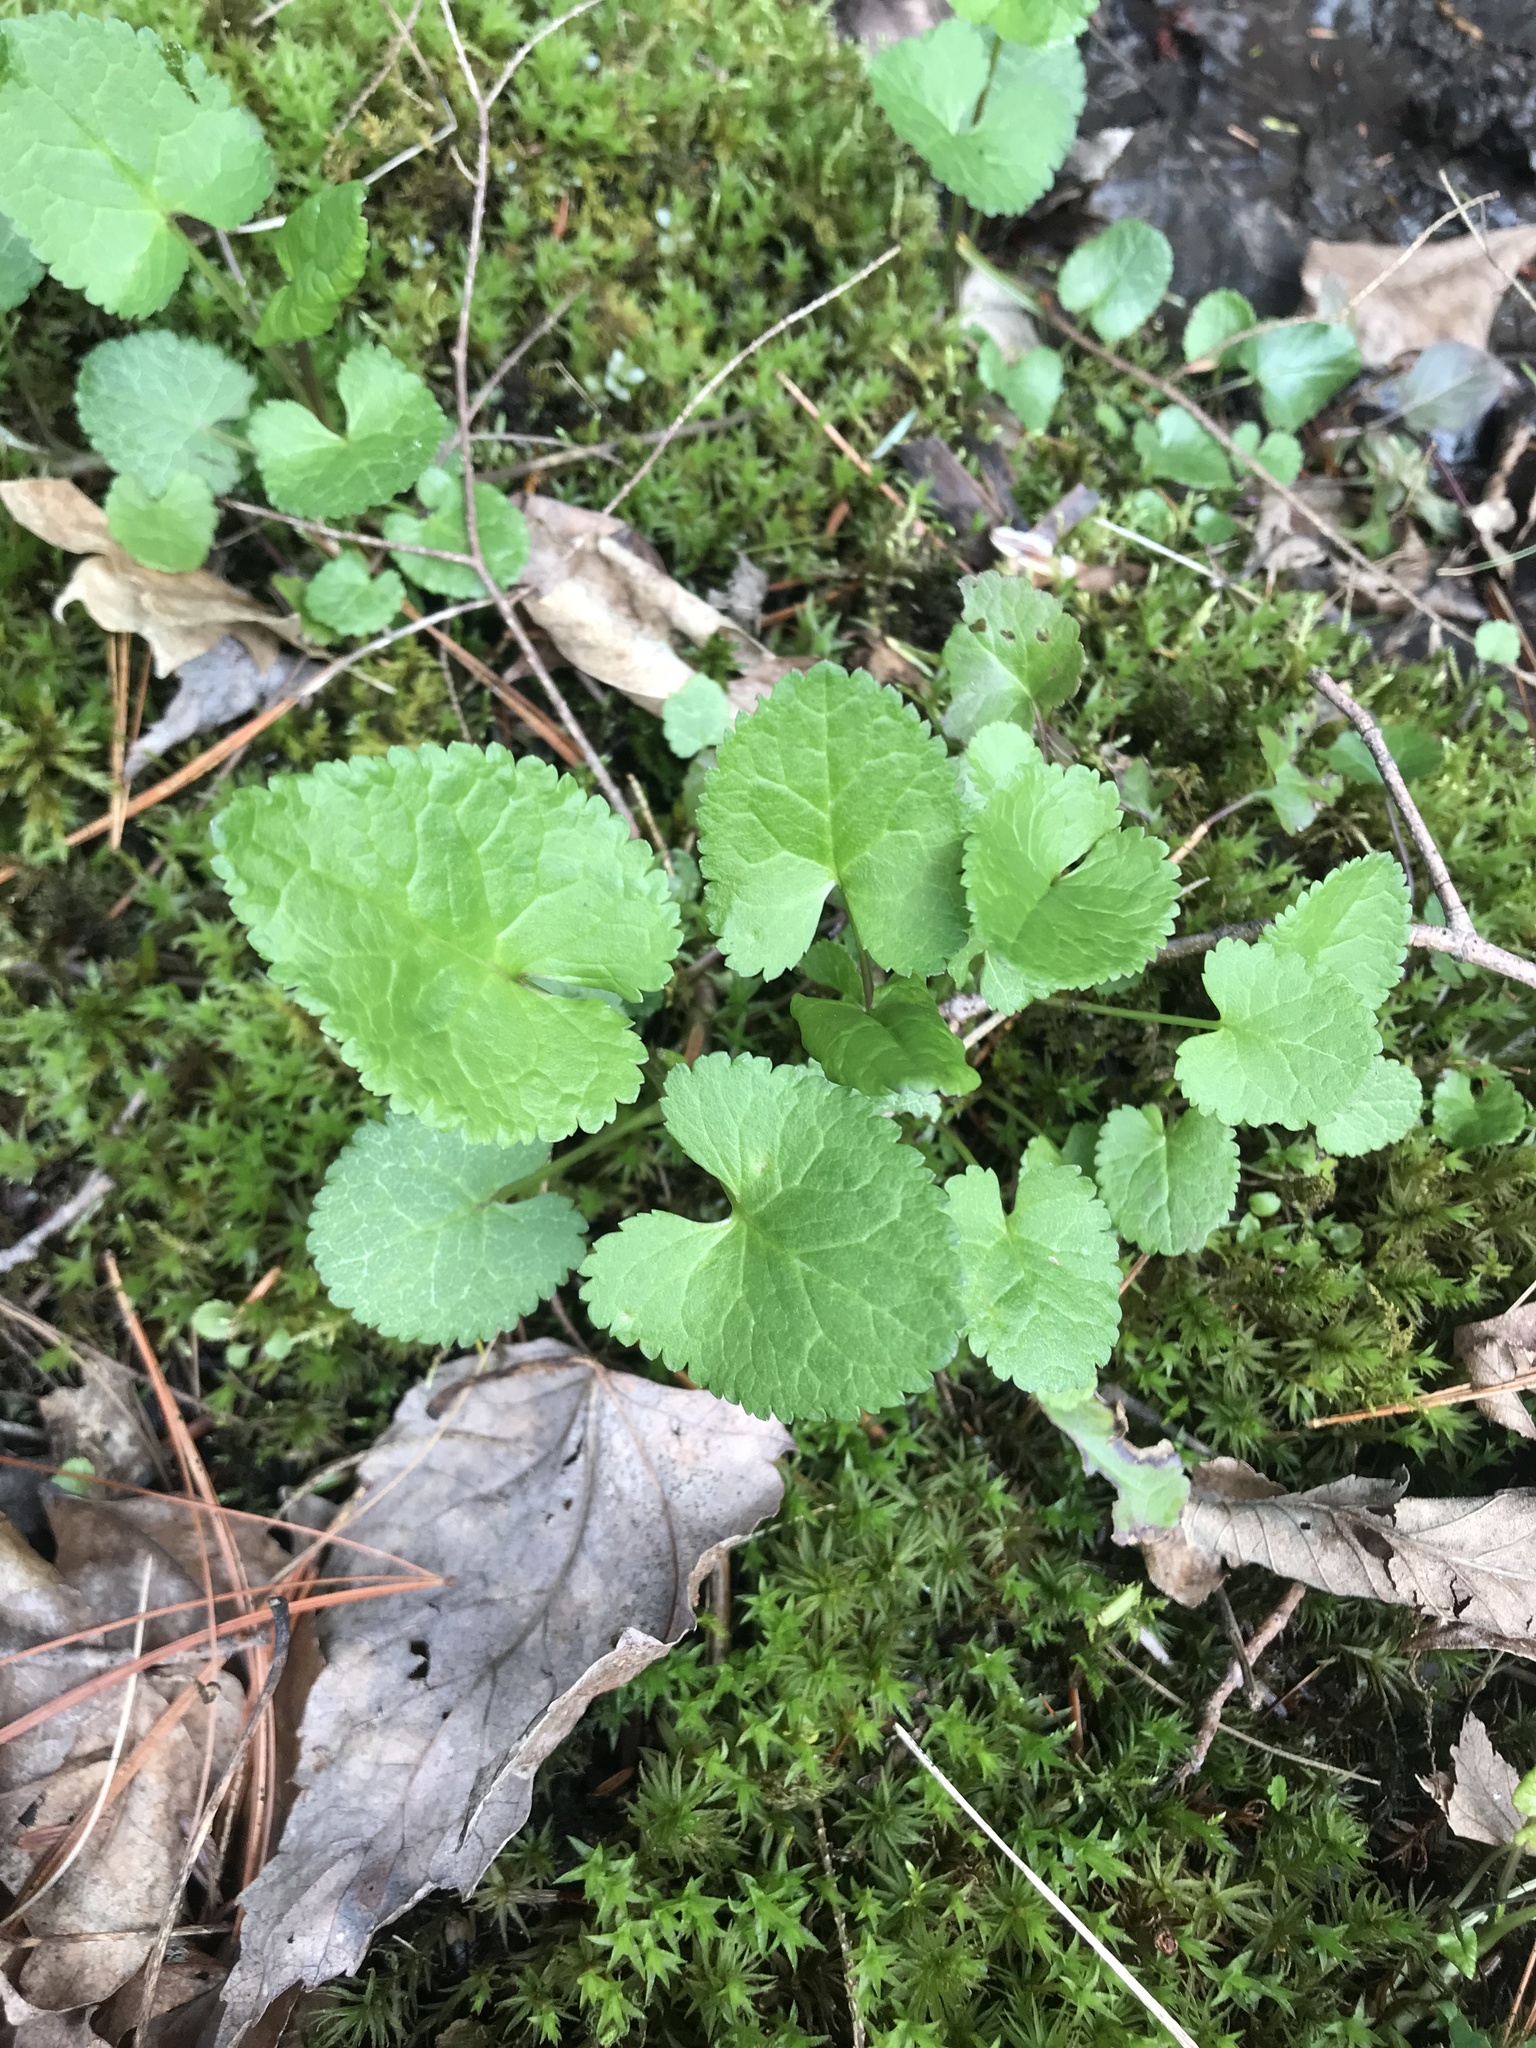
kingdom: Plantae
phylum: Tracheophyta
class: Magnoliopsida
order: Asterales
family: Asteraceae
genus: Packera
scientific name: Packera aurea
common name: Golden groundsel
